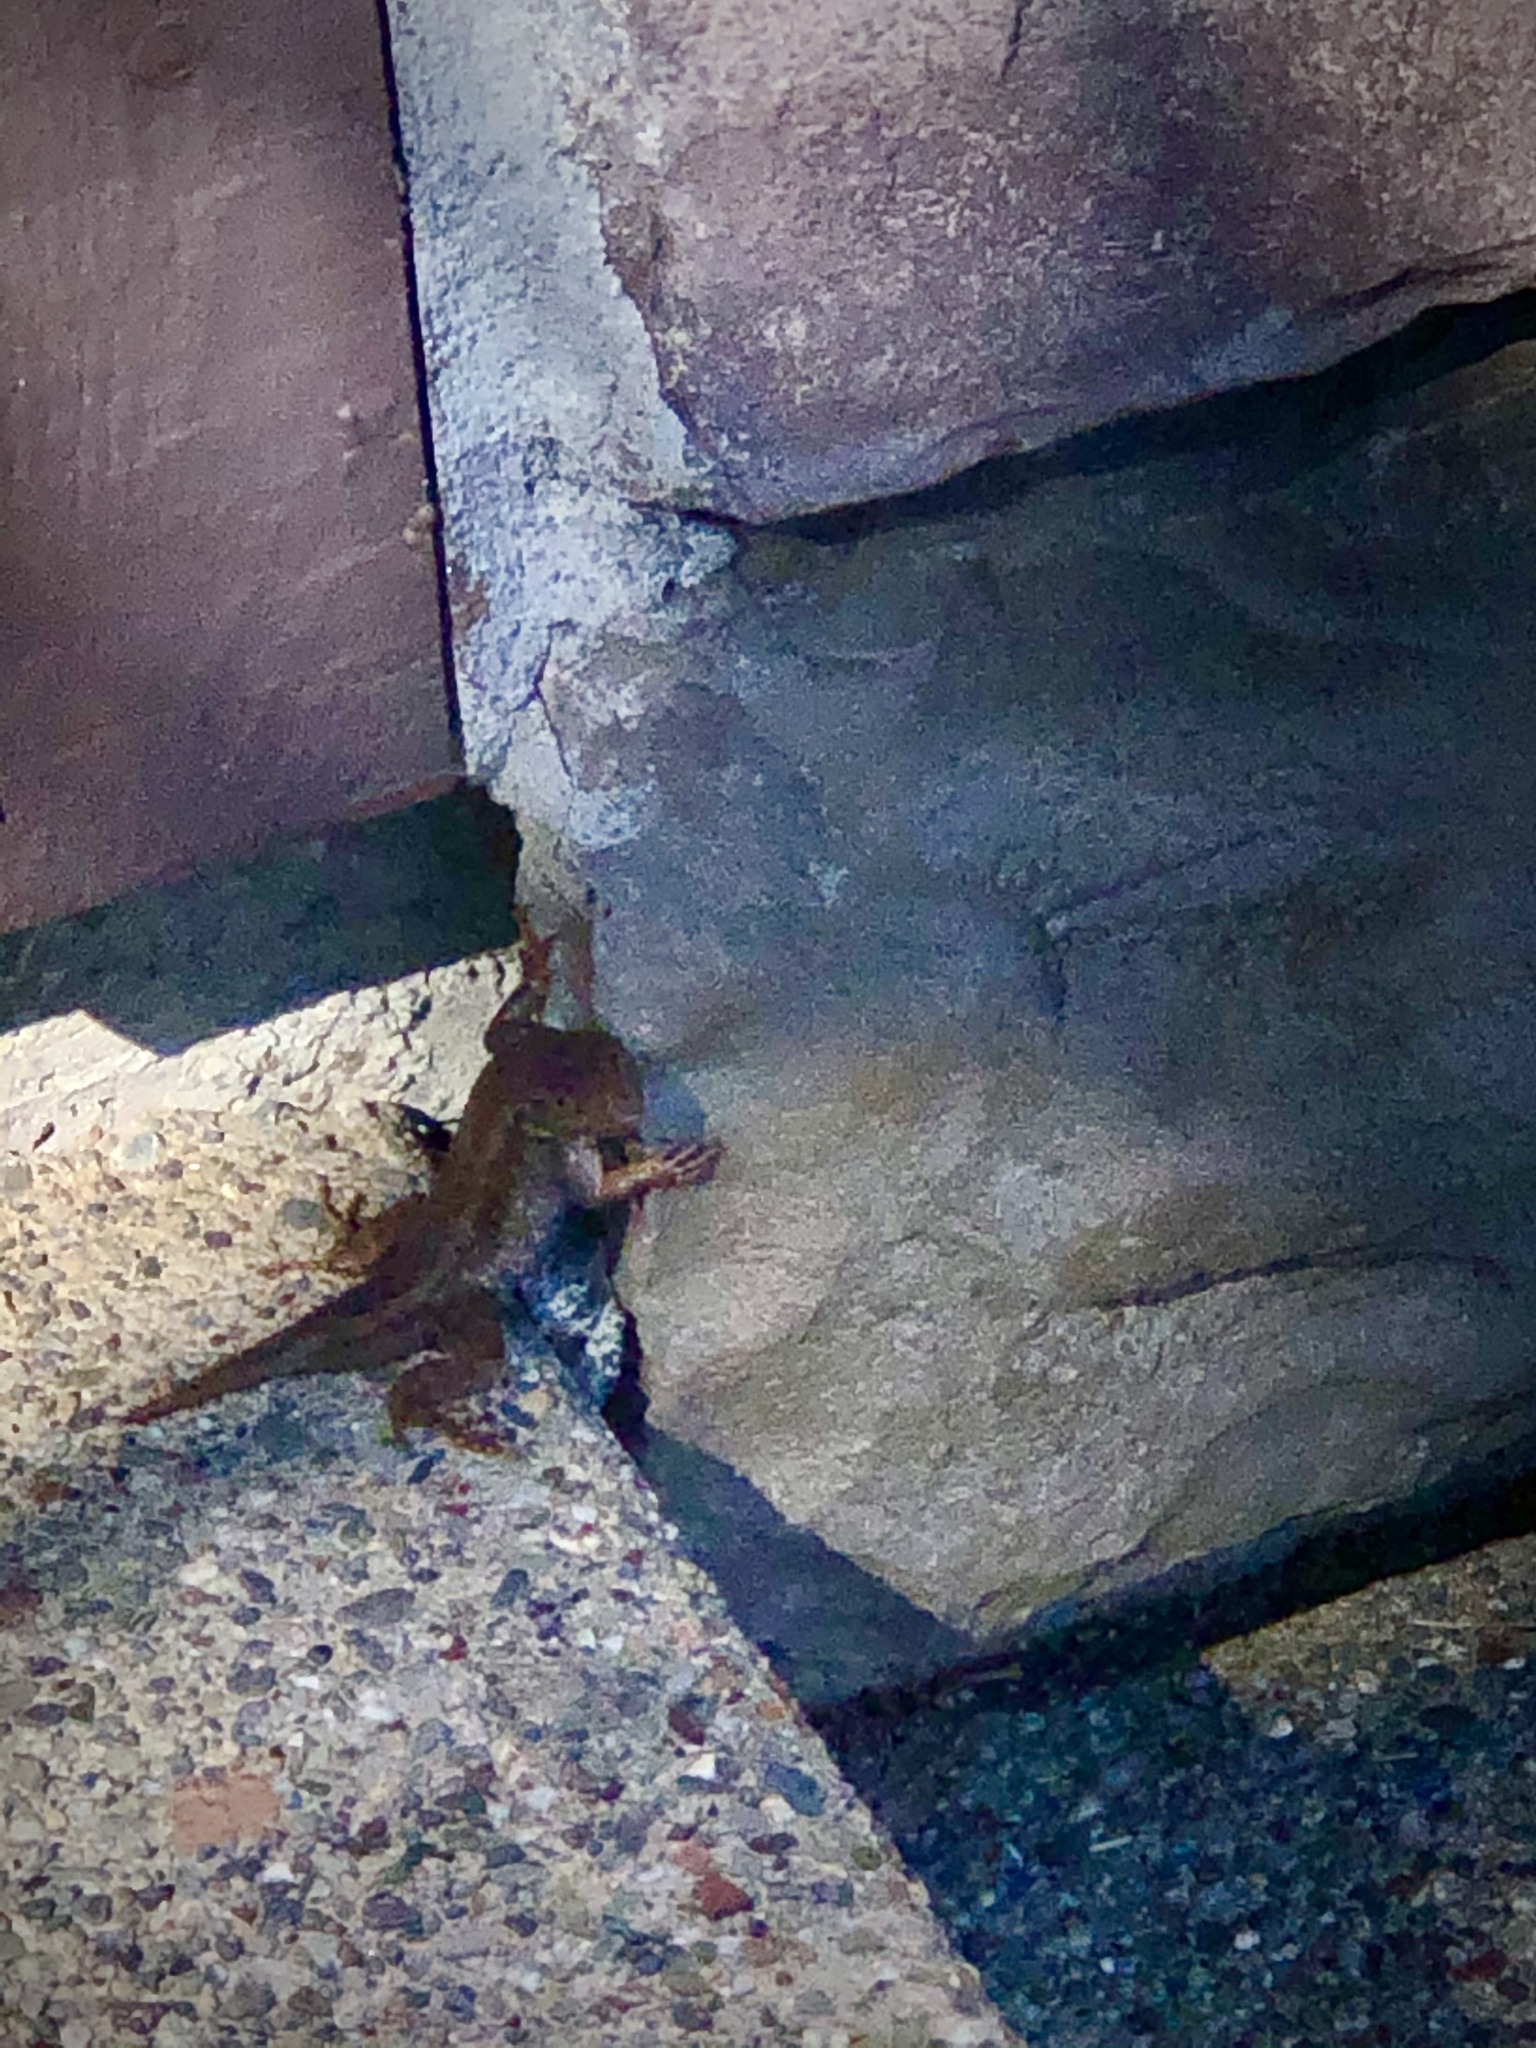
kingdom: Animalia
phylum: Chordata
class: Squamata
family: Phrynosomatidae
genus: Sceloporus
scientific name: Sceloporus occidentalis
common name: Western fence lizard
